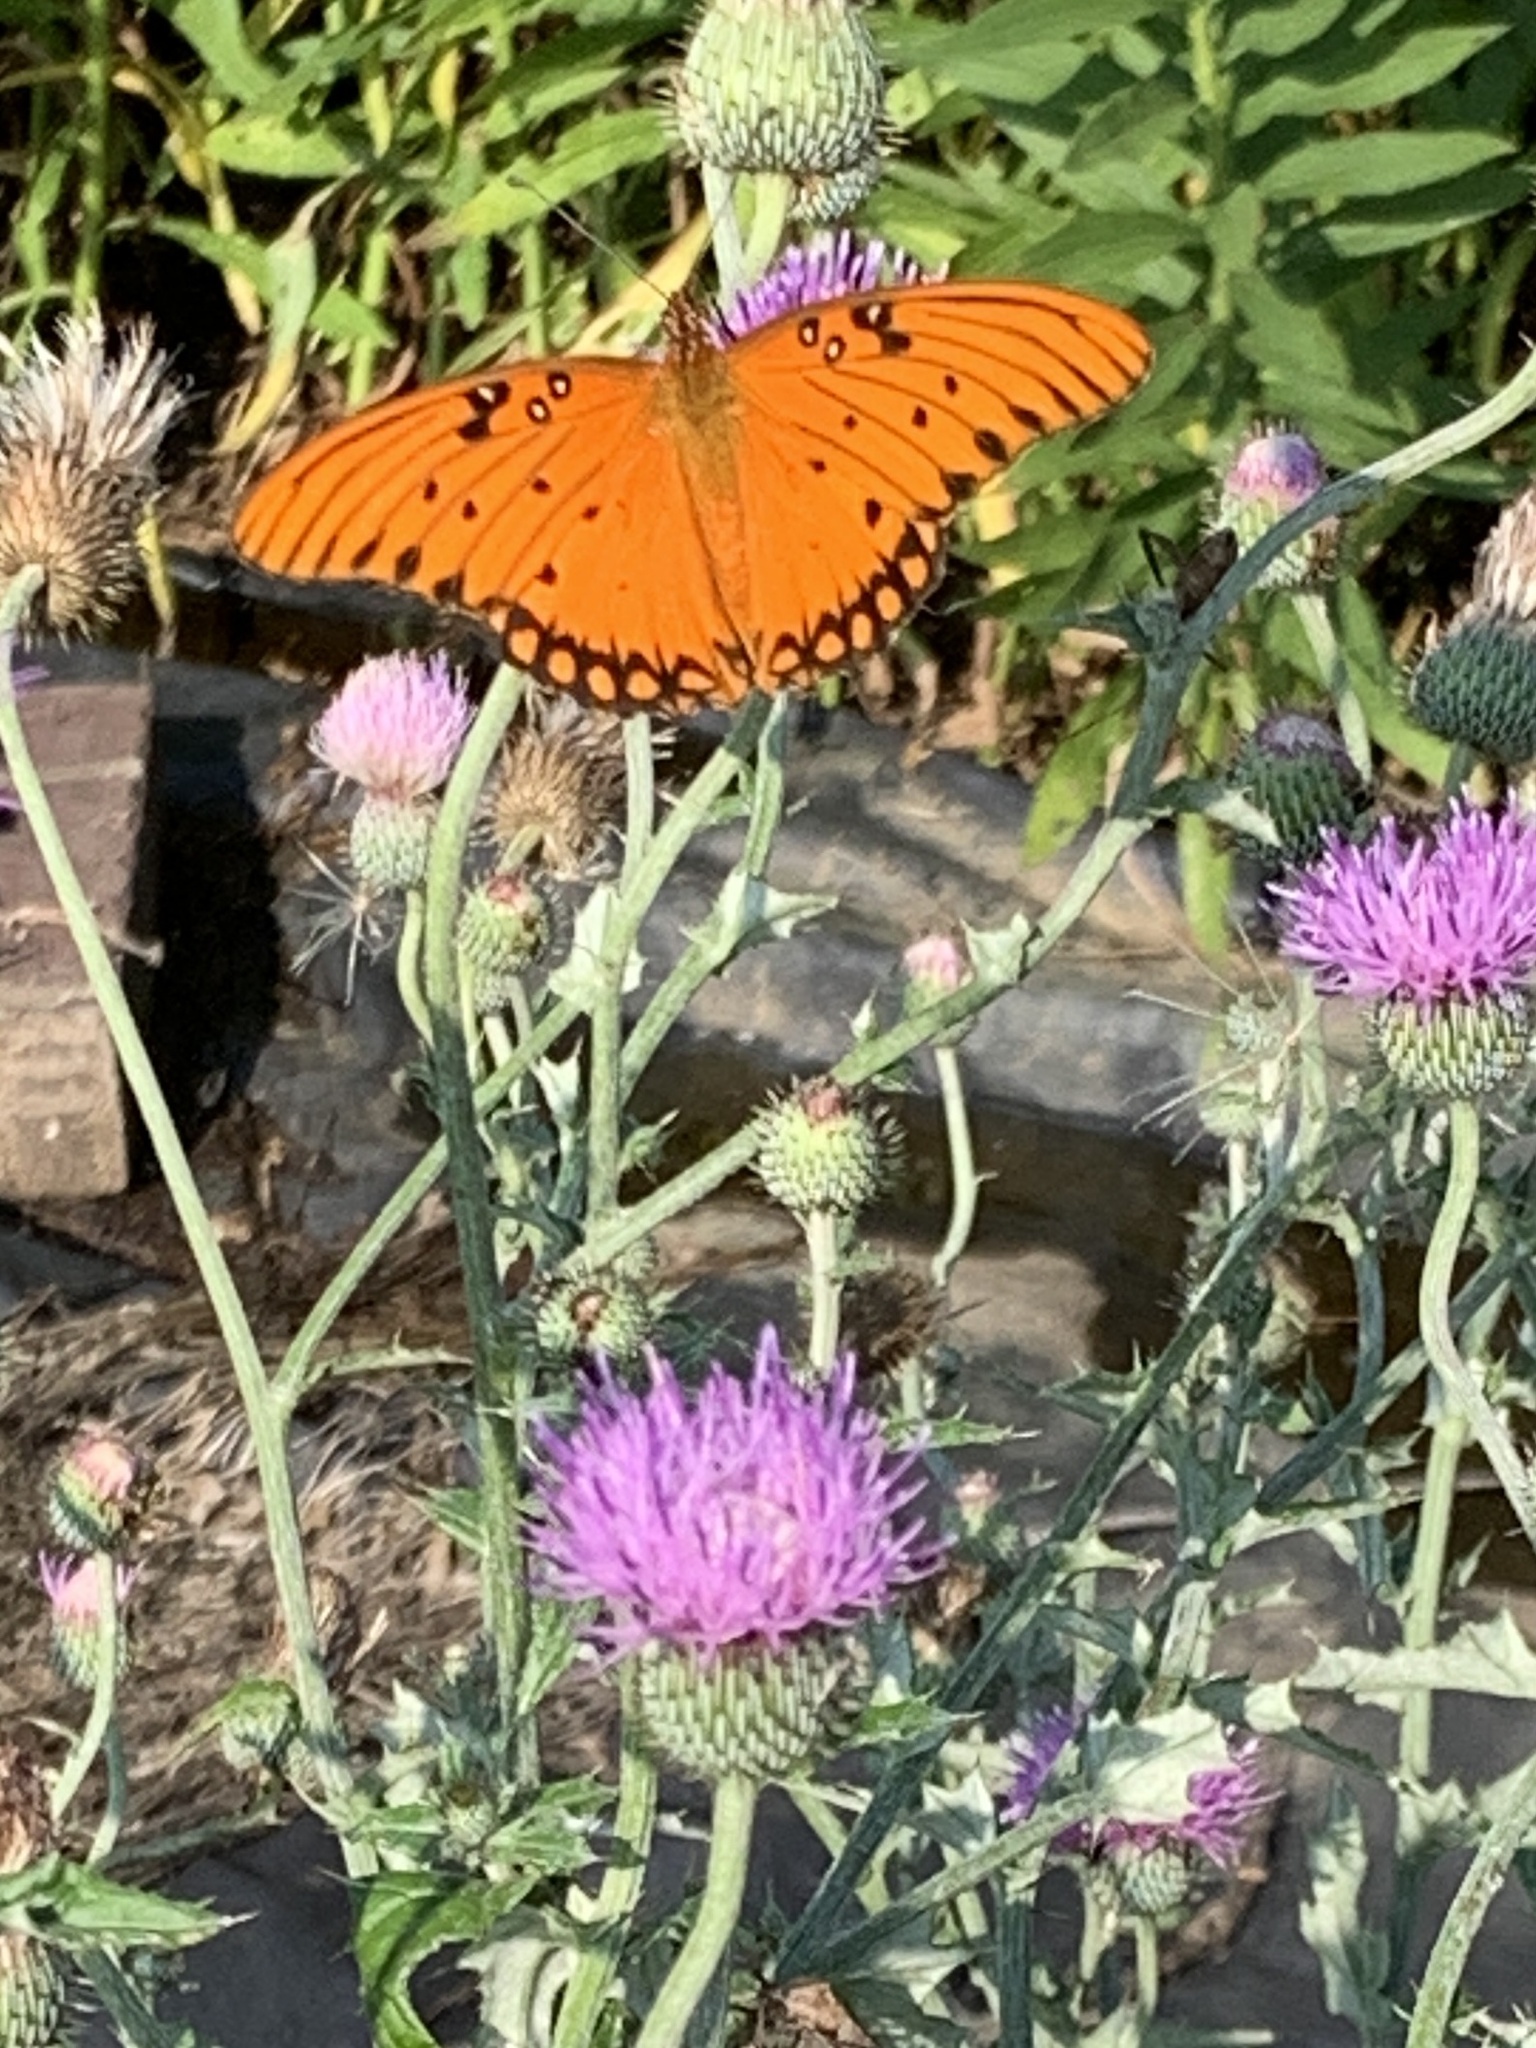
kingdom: Animalia
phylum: Arthropoda
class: Insecta
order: Lepidoptera
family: Nymphalidae
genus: Dione
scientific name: Dione vanillae
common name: Gulf fritillary
